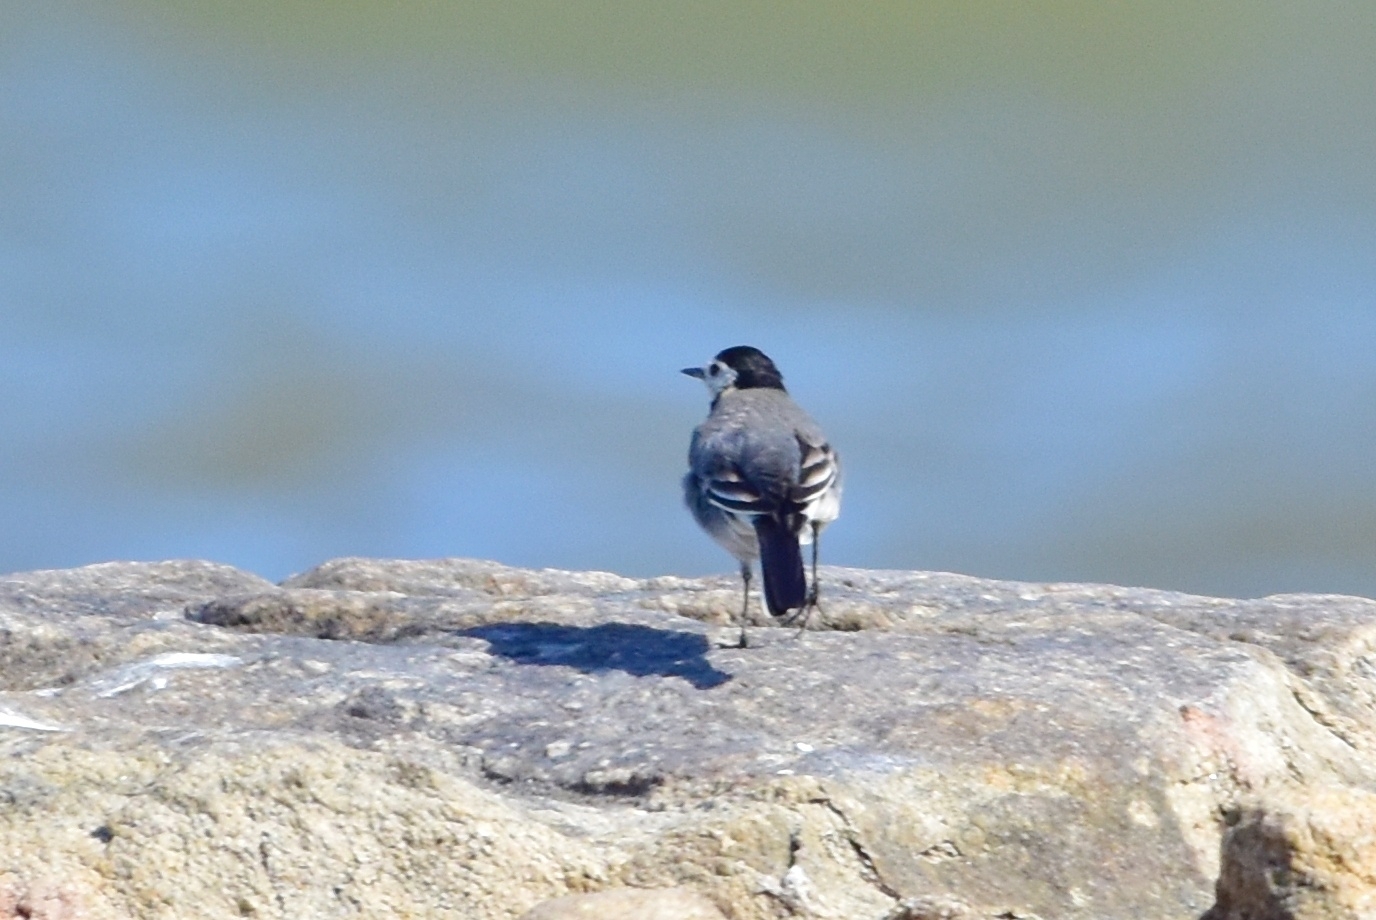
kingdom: Animalia
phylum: Chordata
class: Aves
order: Passeriformes
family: Motacillidae
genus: Motacilla
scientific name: Motacilla alba
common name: White wagtail
